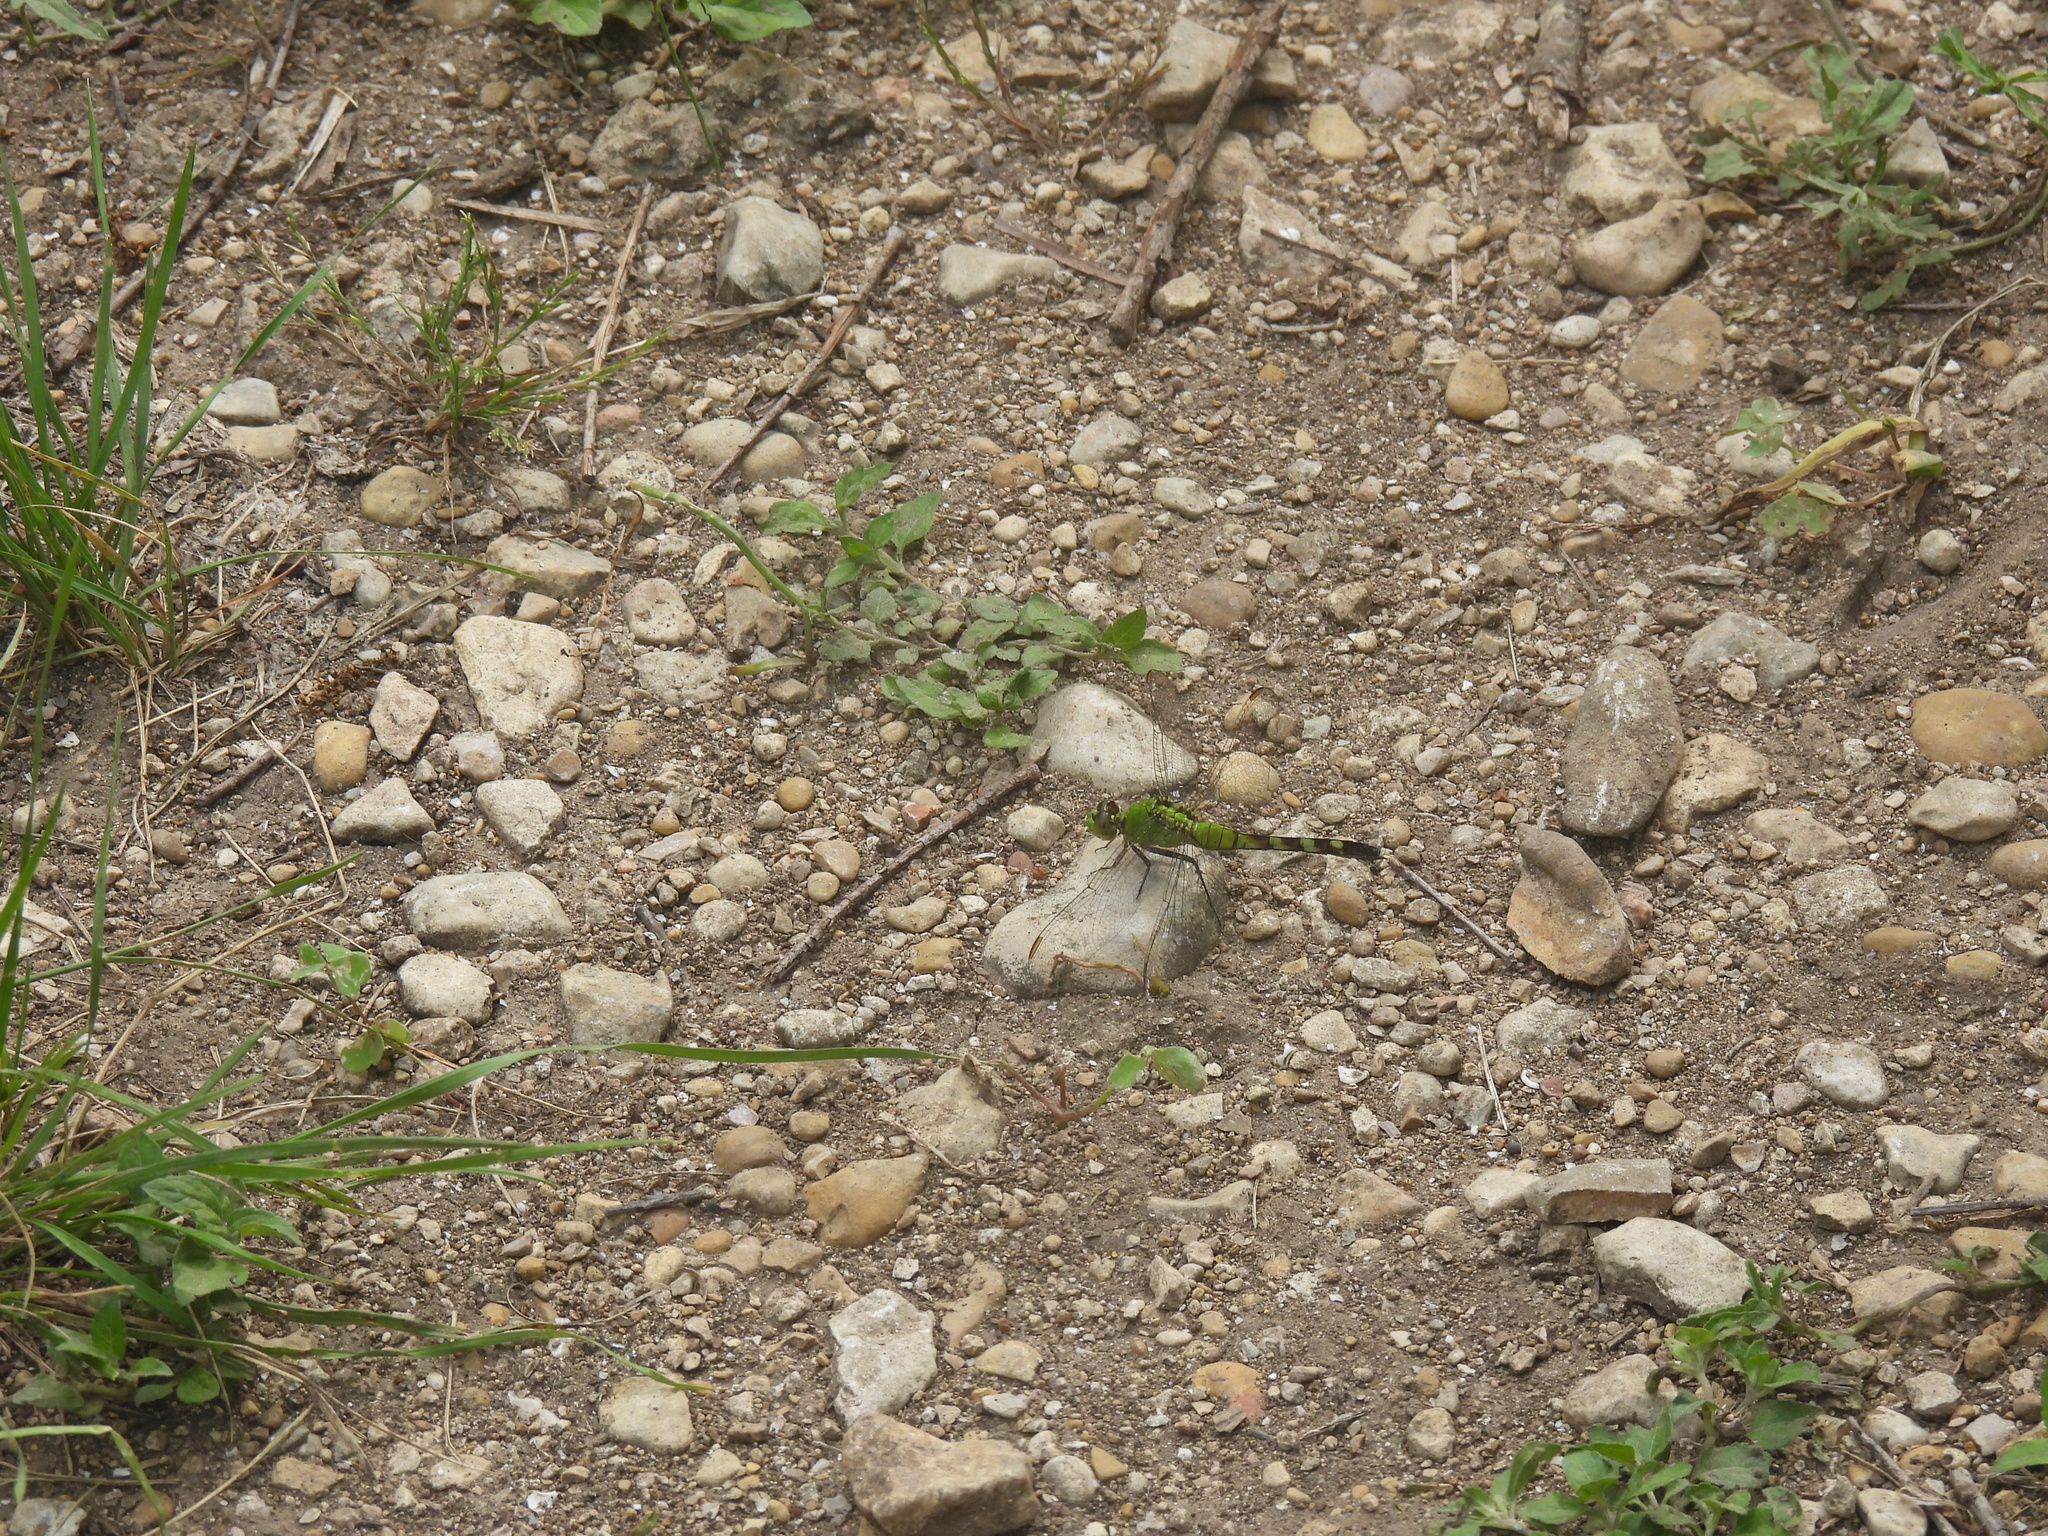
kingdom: Animalia
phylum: Arthropoda
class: Insecta
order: Odonata
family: Libellulidae
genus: Erythemis
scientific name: Erythemis simplicicollis
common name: Eastern pondhawk
